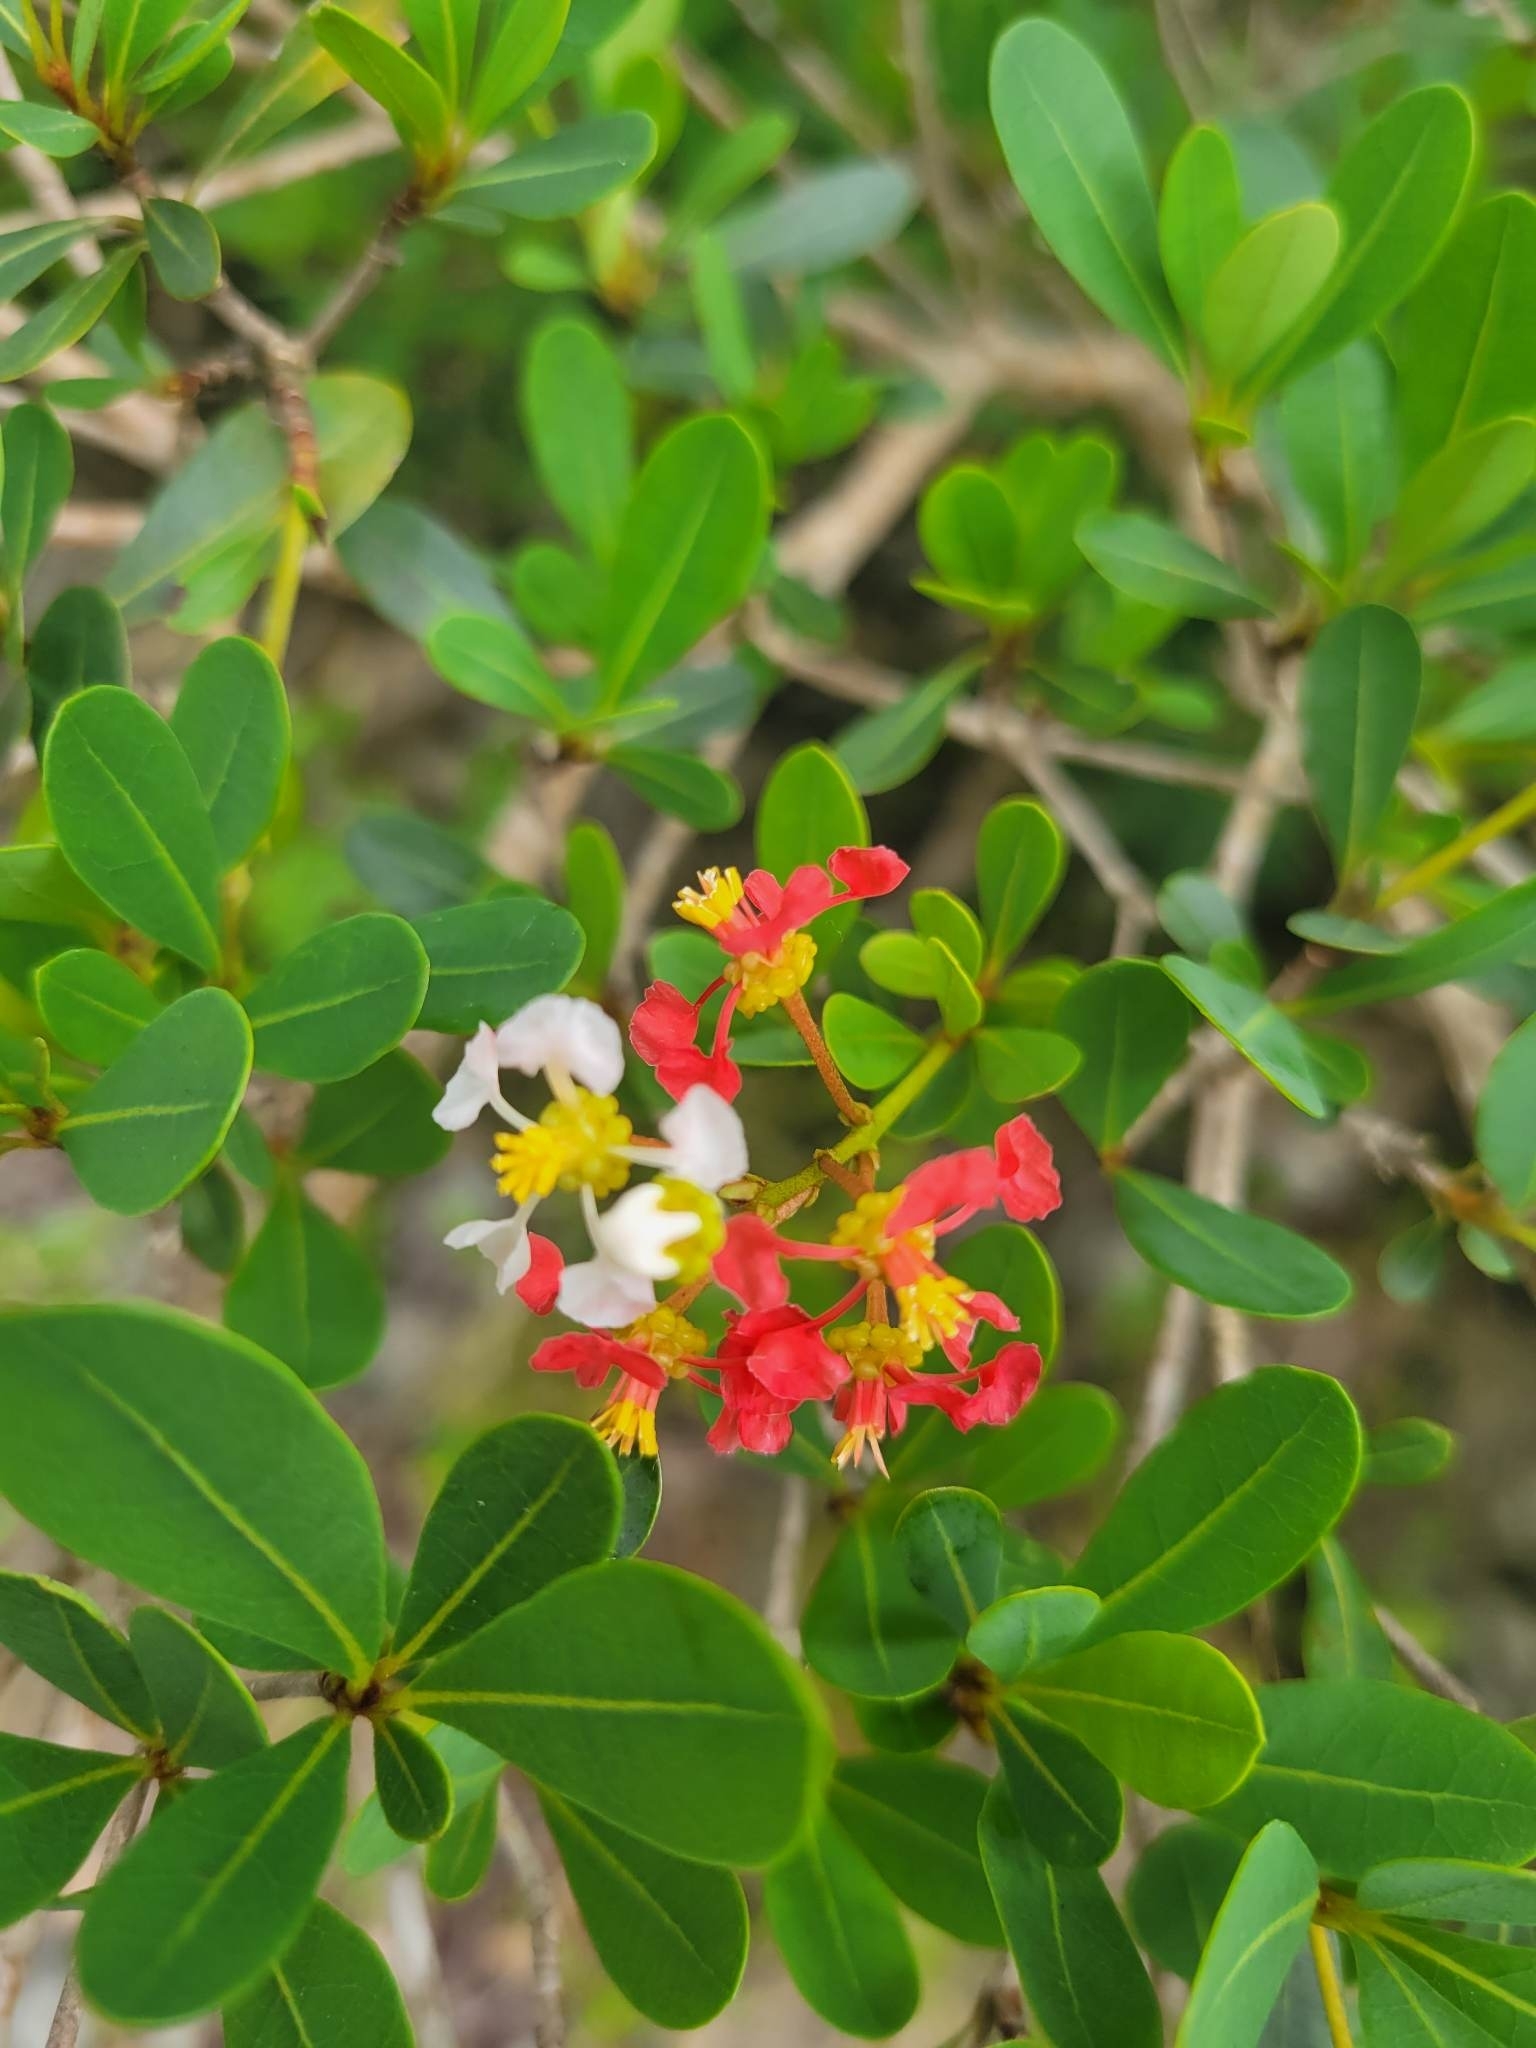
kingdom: Plantae
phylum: Tracheophyta
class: Magnoliopsida
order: Malpighiales
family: Malpighiaceae
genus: Byrsonima
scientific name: Byrsonima lucida
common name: Clam-cherry
